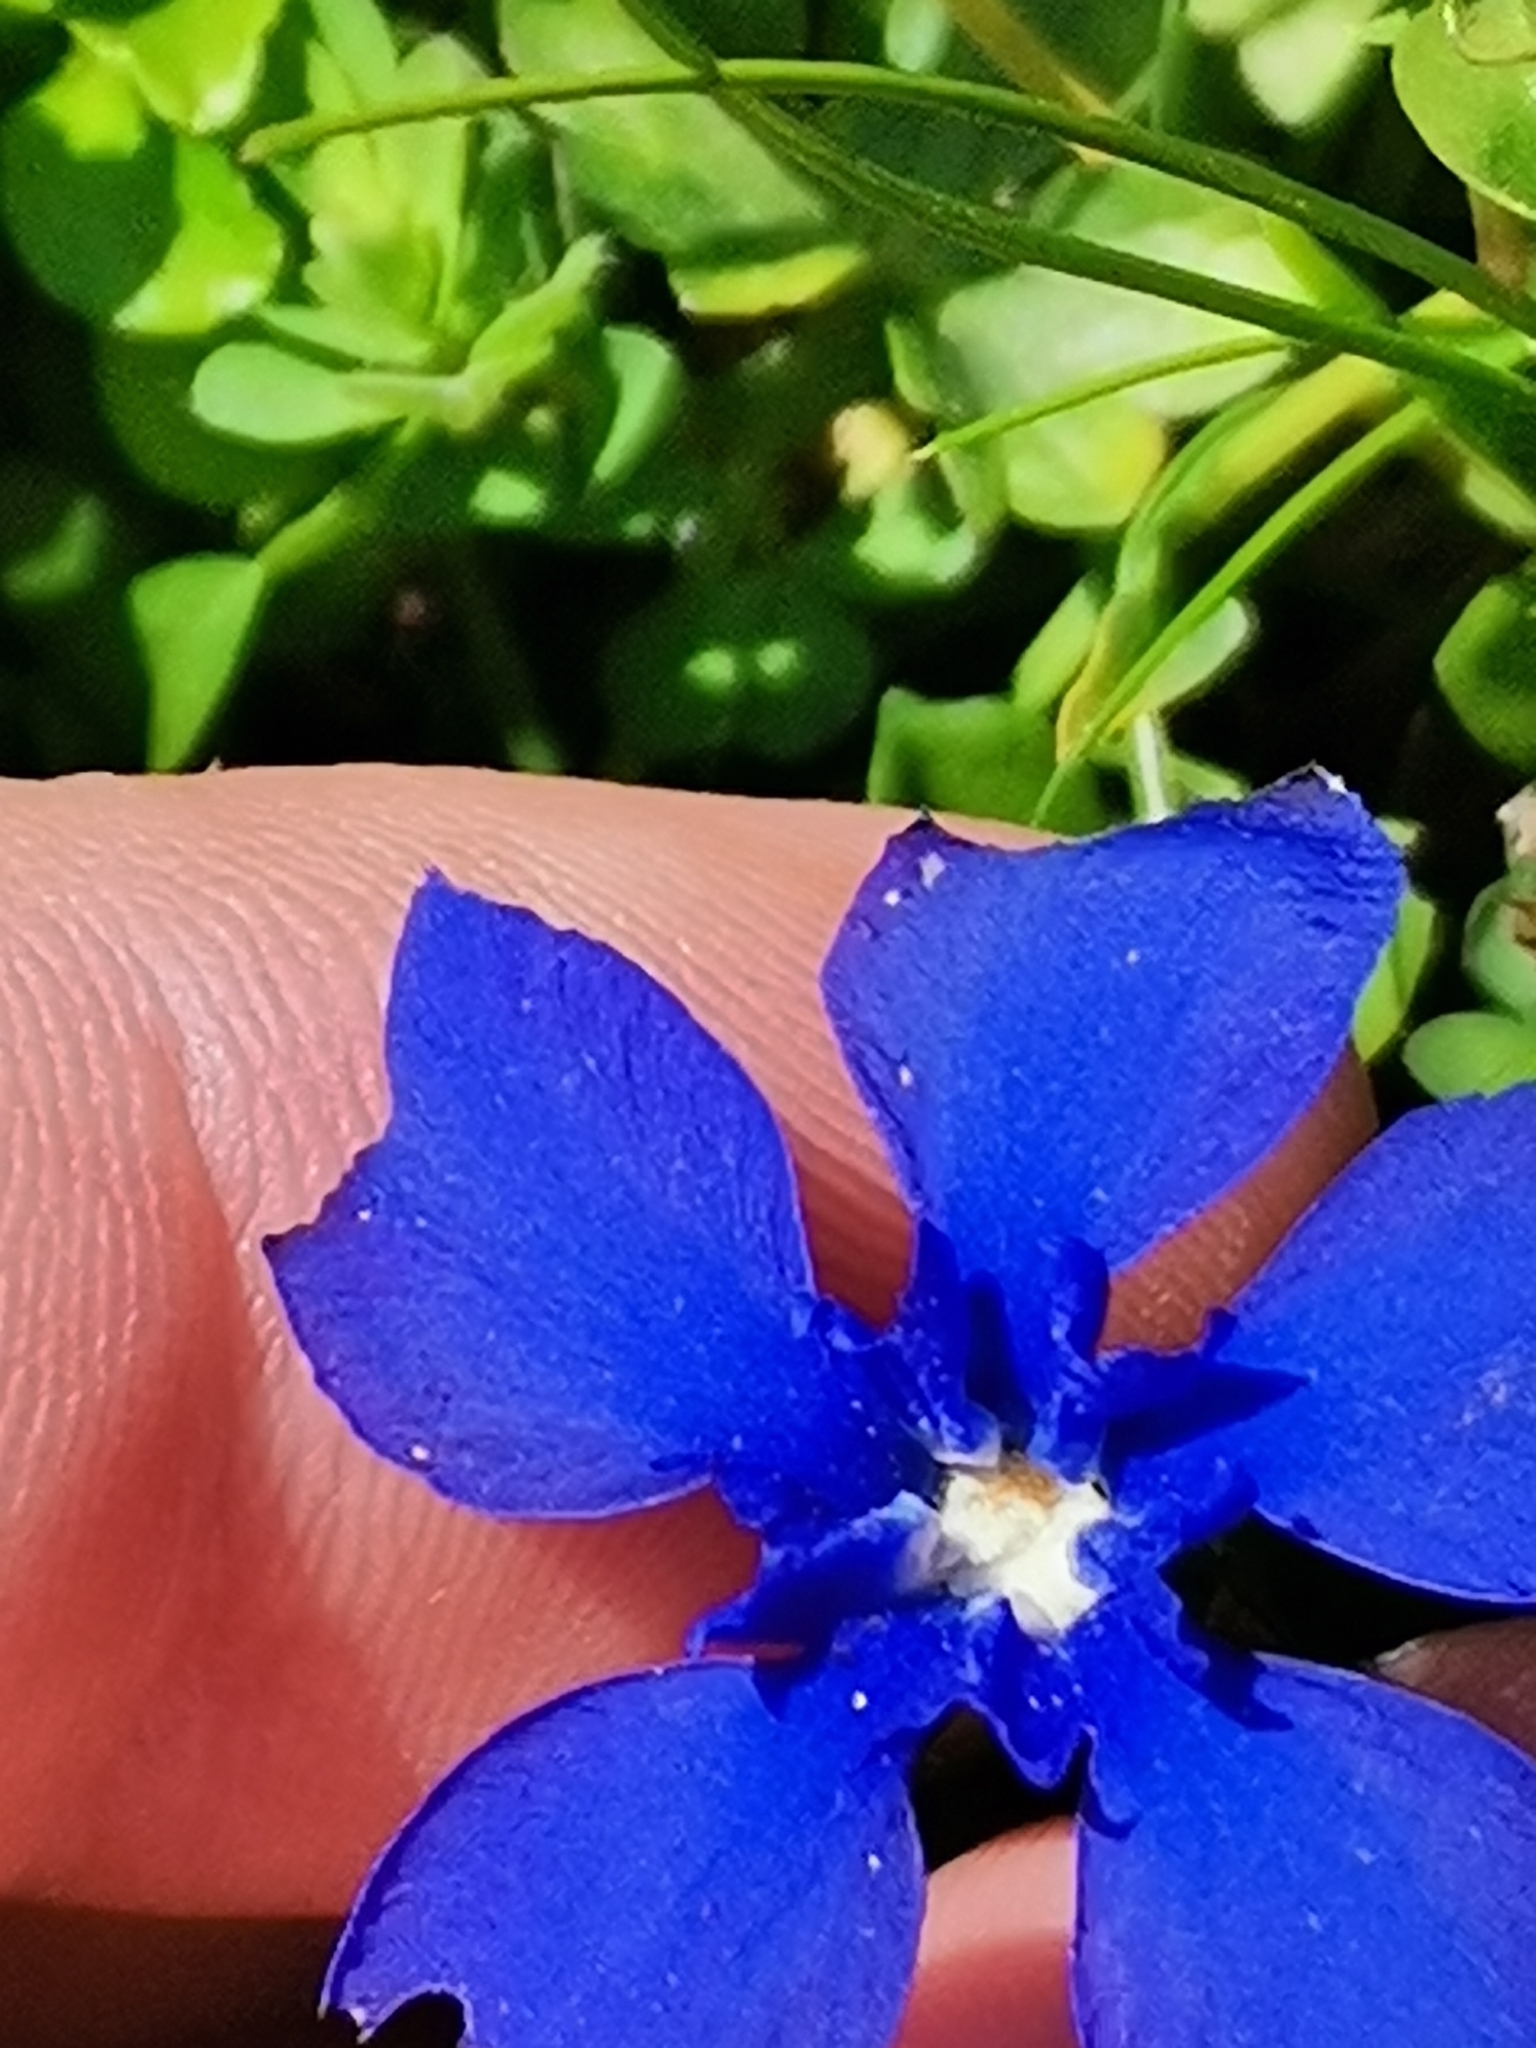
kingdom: Plantae
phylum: Tracheophyta
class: Magnoliopsida
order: Gentianales
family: Gentianaceae
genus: Gentiana
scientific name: Gentiana verna
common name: Spring gentian
